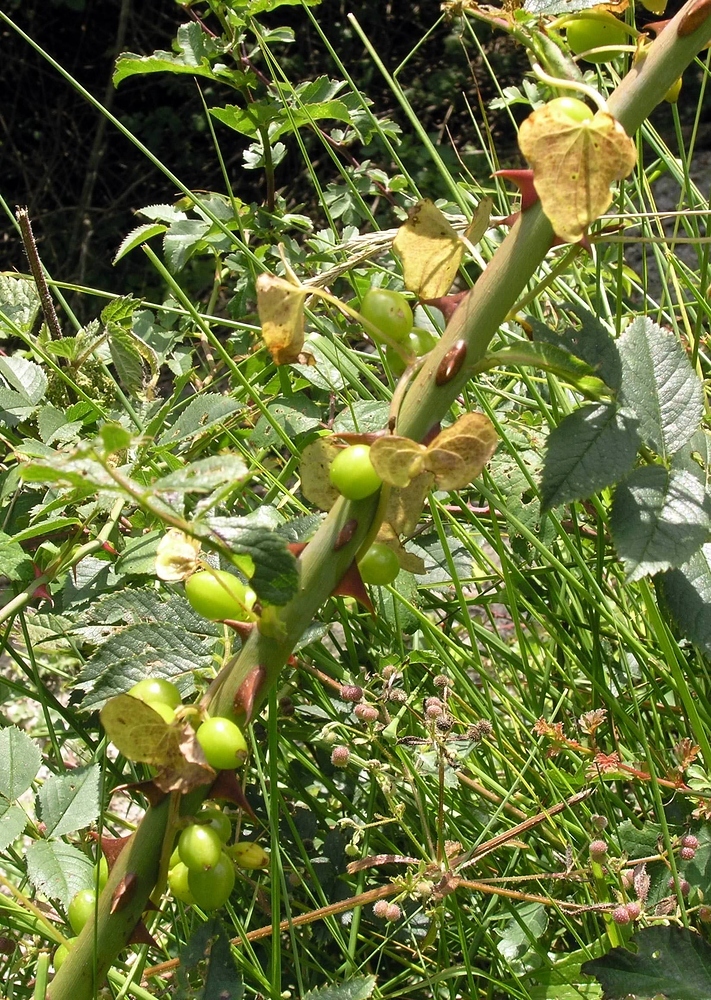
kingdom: Plantae
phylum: Tracheophyta
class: Liliopsida
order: Dioscoreales
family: Dioscoreaceae
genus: Dioscorea
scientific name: Dioscorea communis
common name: Black-bindweed
